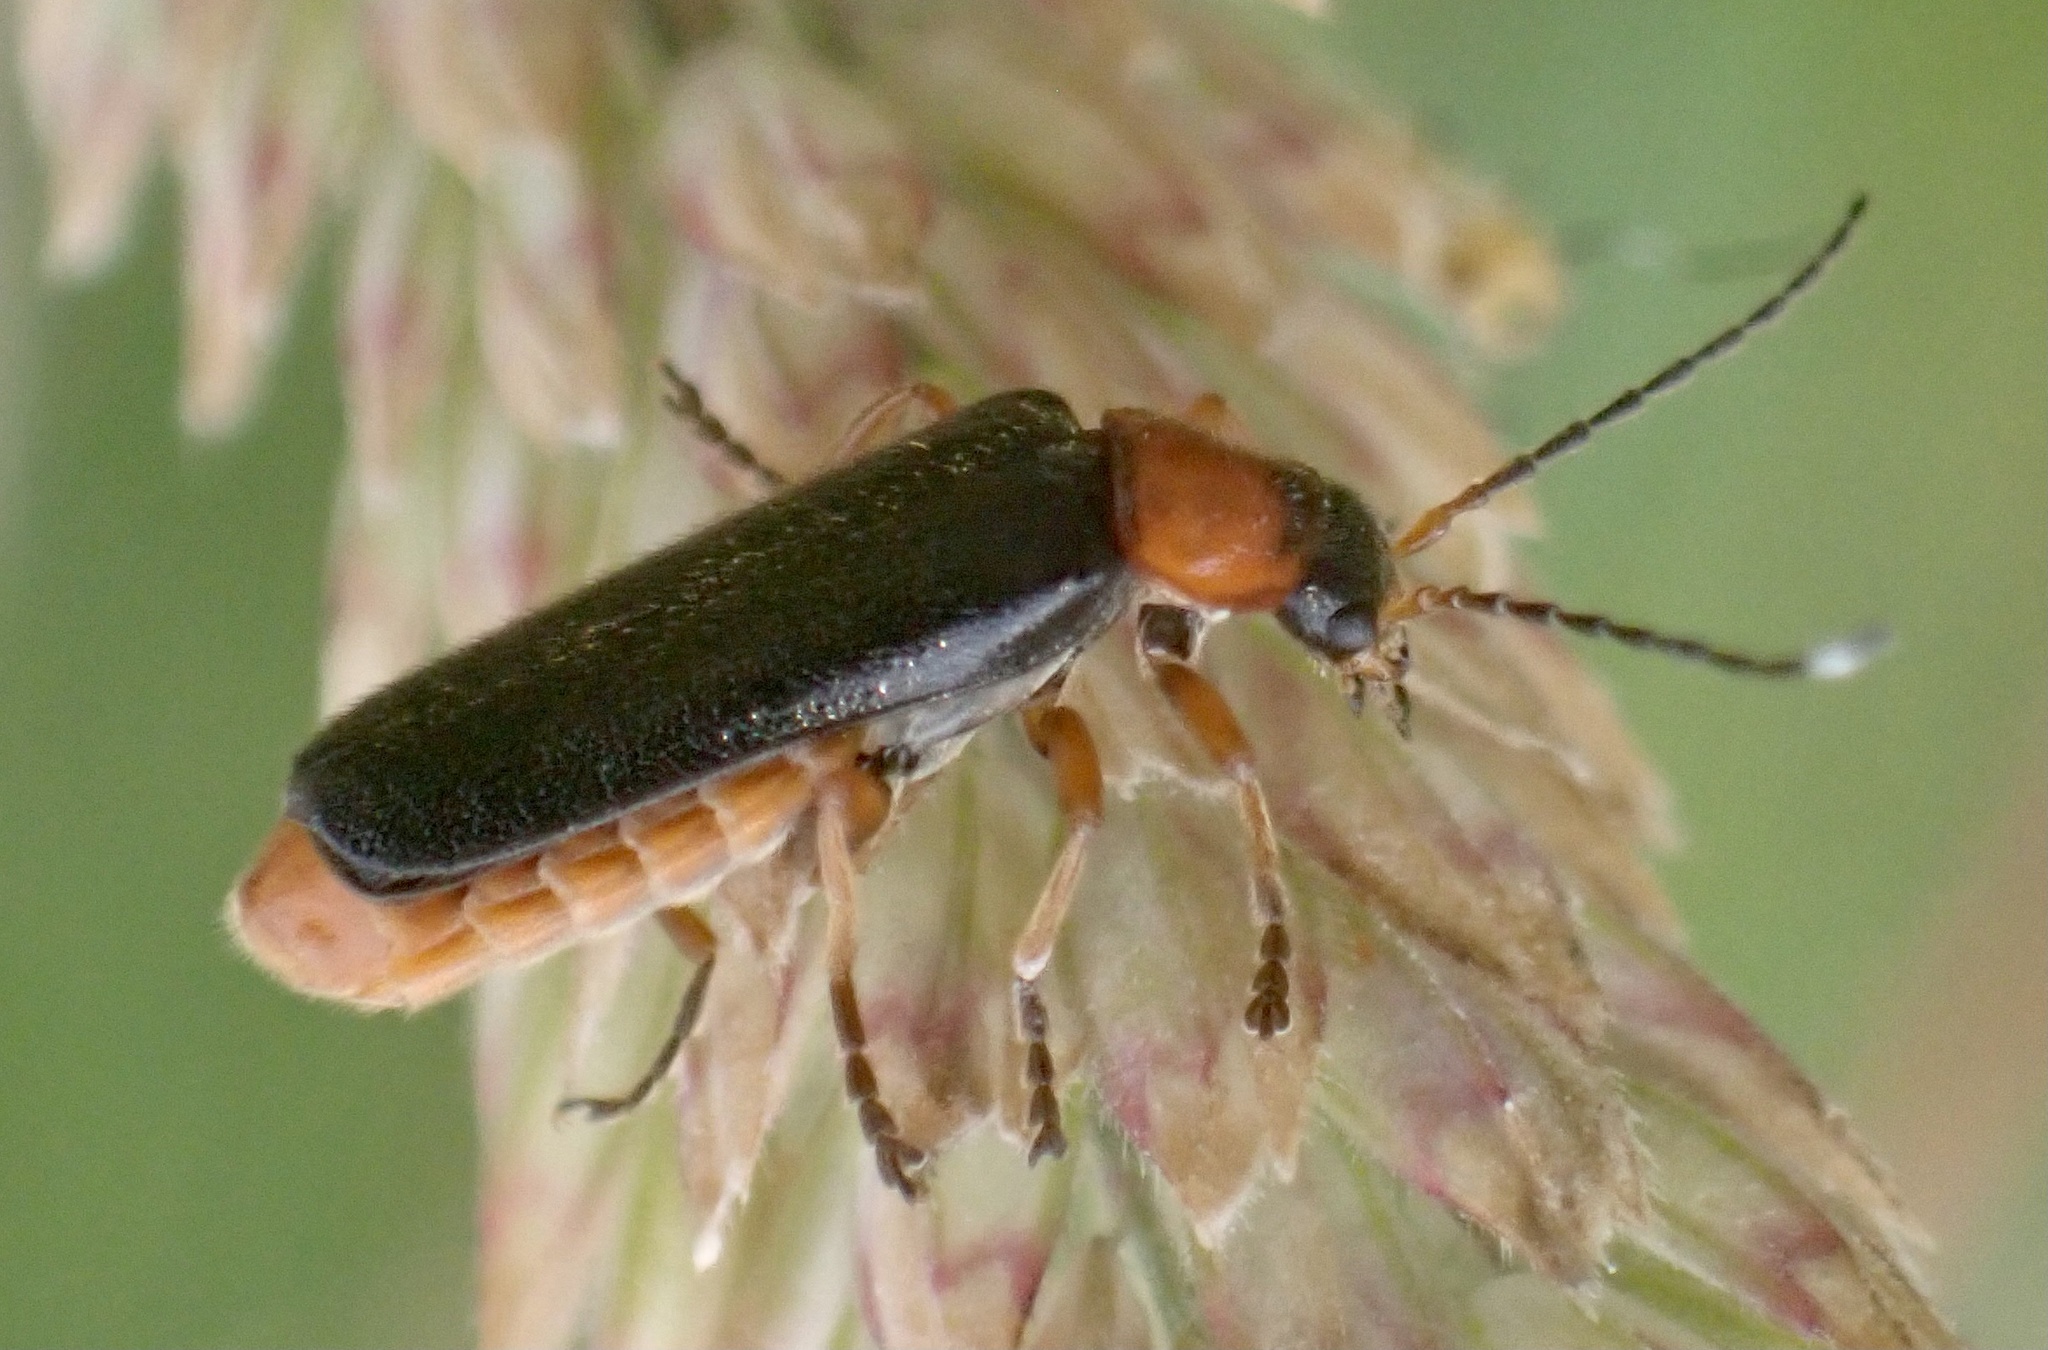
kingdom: Animalia
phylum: Arthropoda
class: Insecta
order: Coleoptera
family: Cantharidae
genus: Cantharis
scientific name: Cantharis flavilabris
